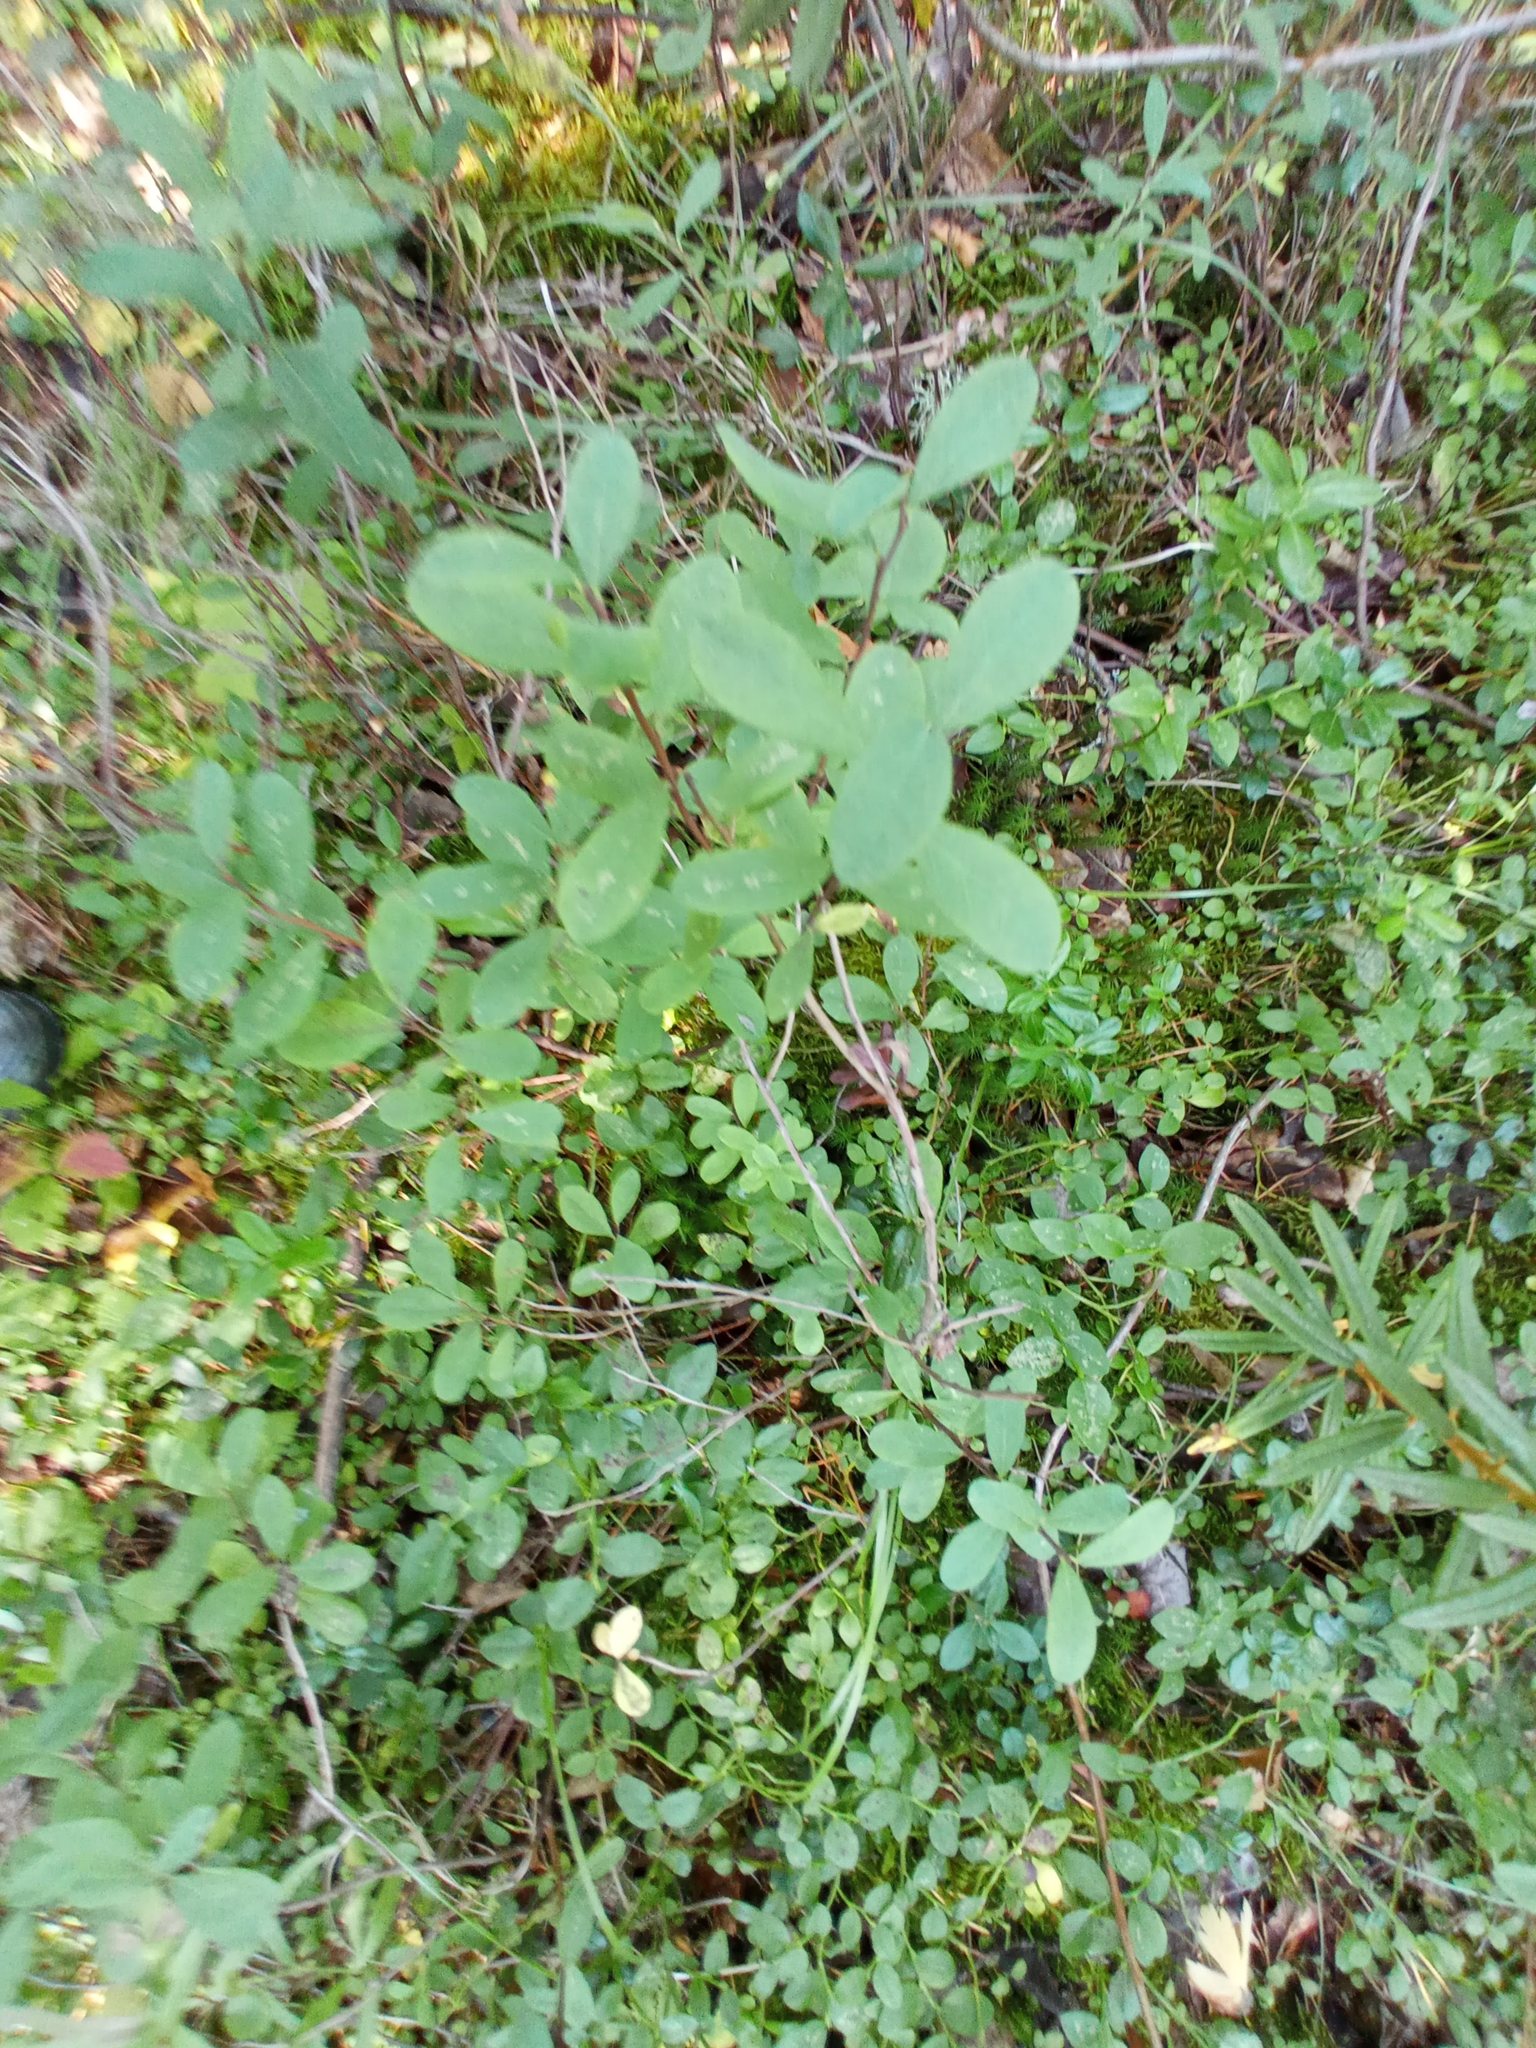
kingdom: Plantae
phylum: Tracheophyta
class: Magnoliopsida
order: Ericales
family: Ericaceae
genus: Vaccinium
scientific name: Vaccinium uliginosum
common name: Bog bilberry
